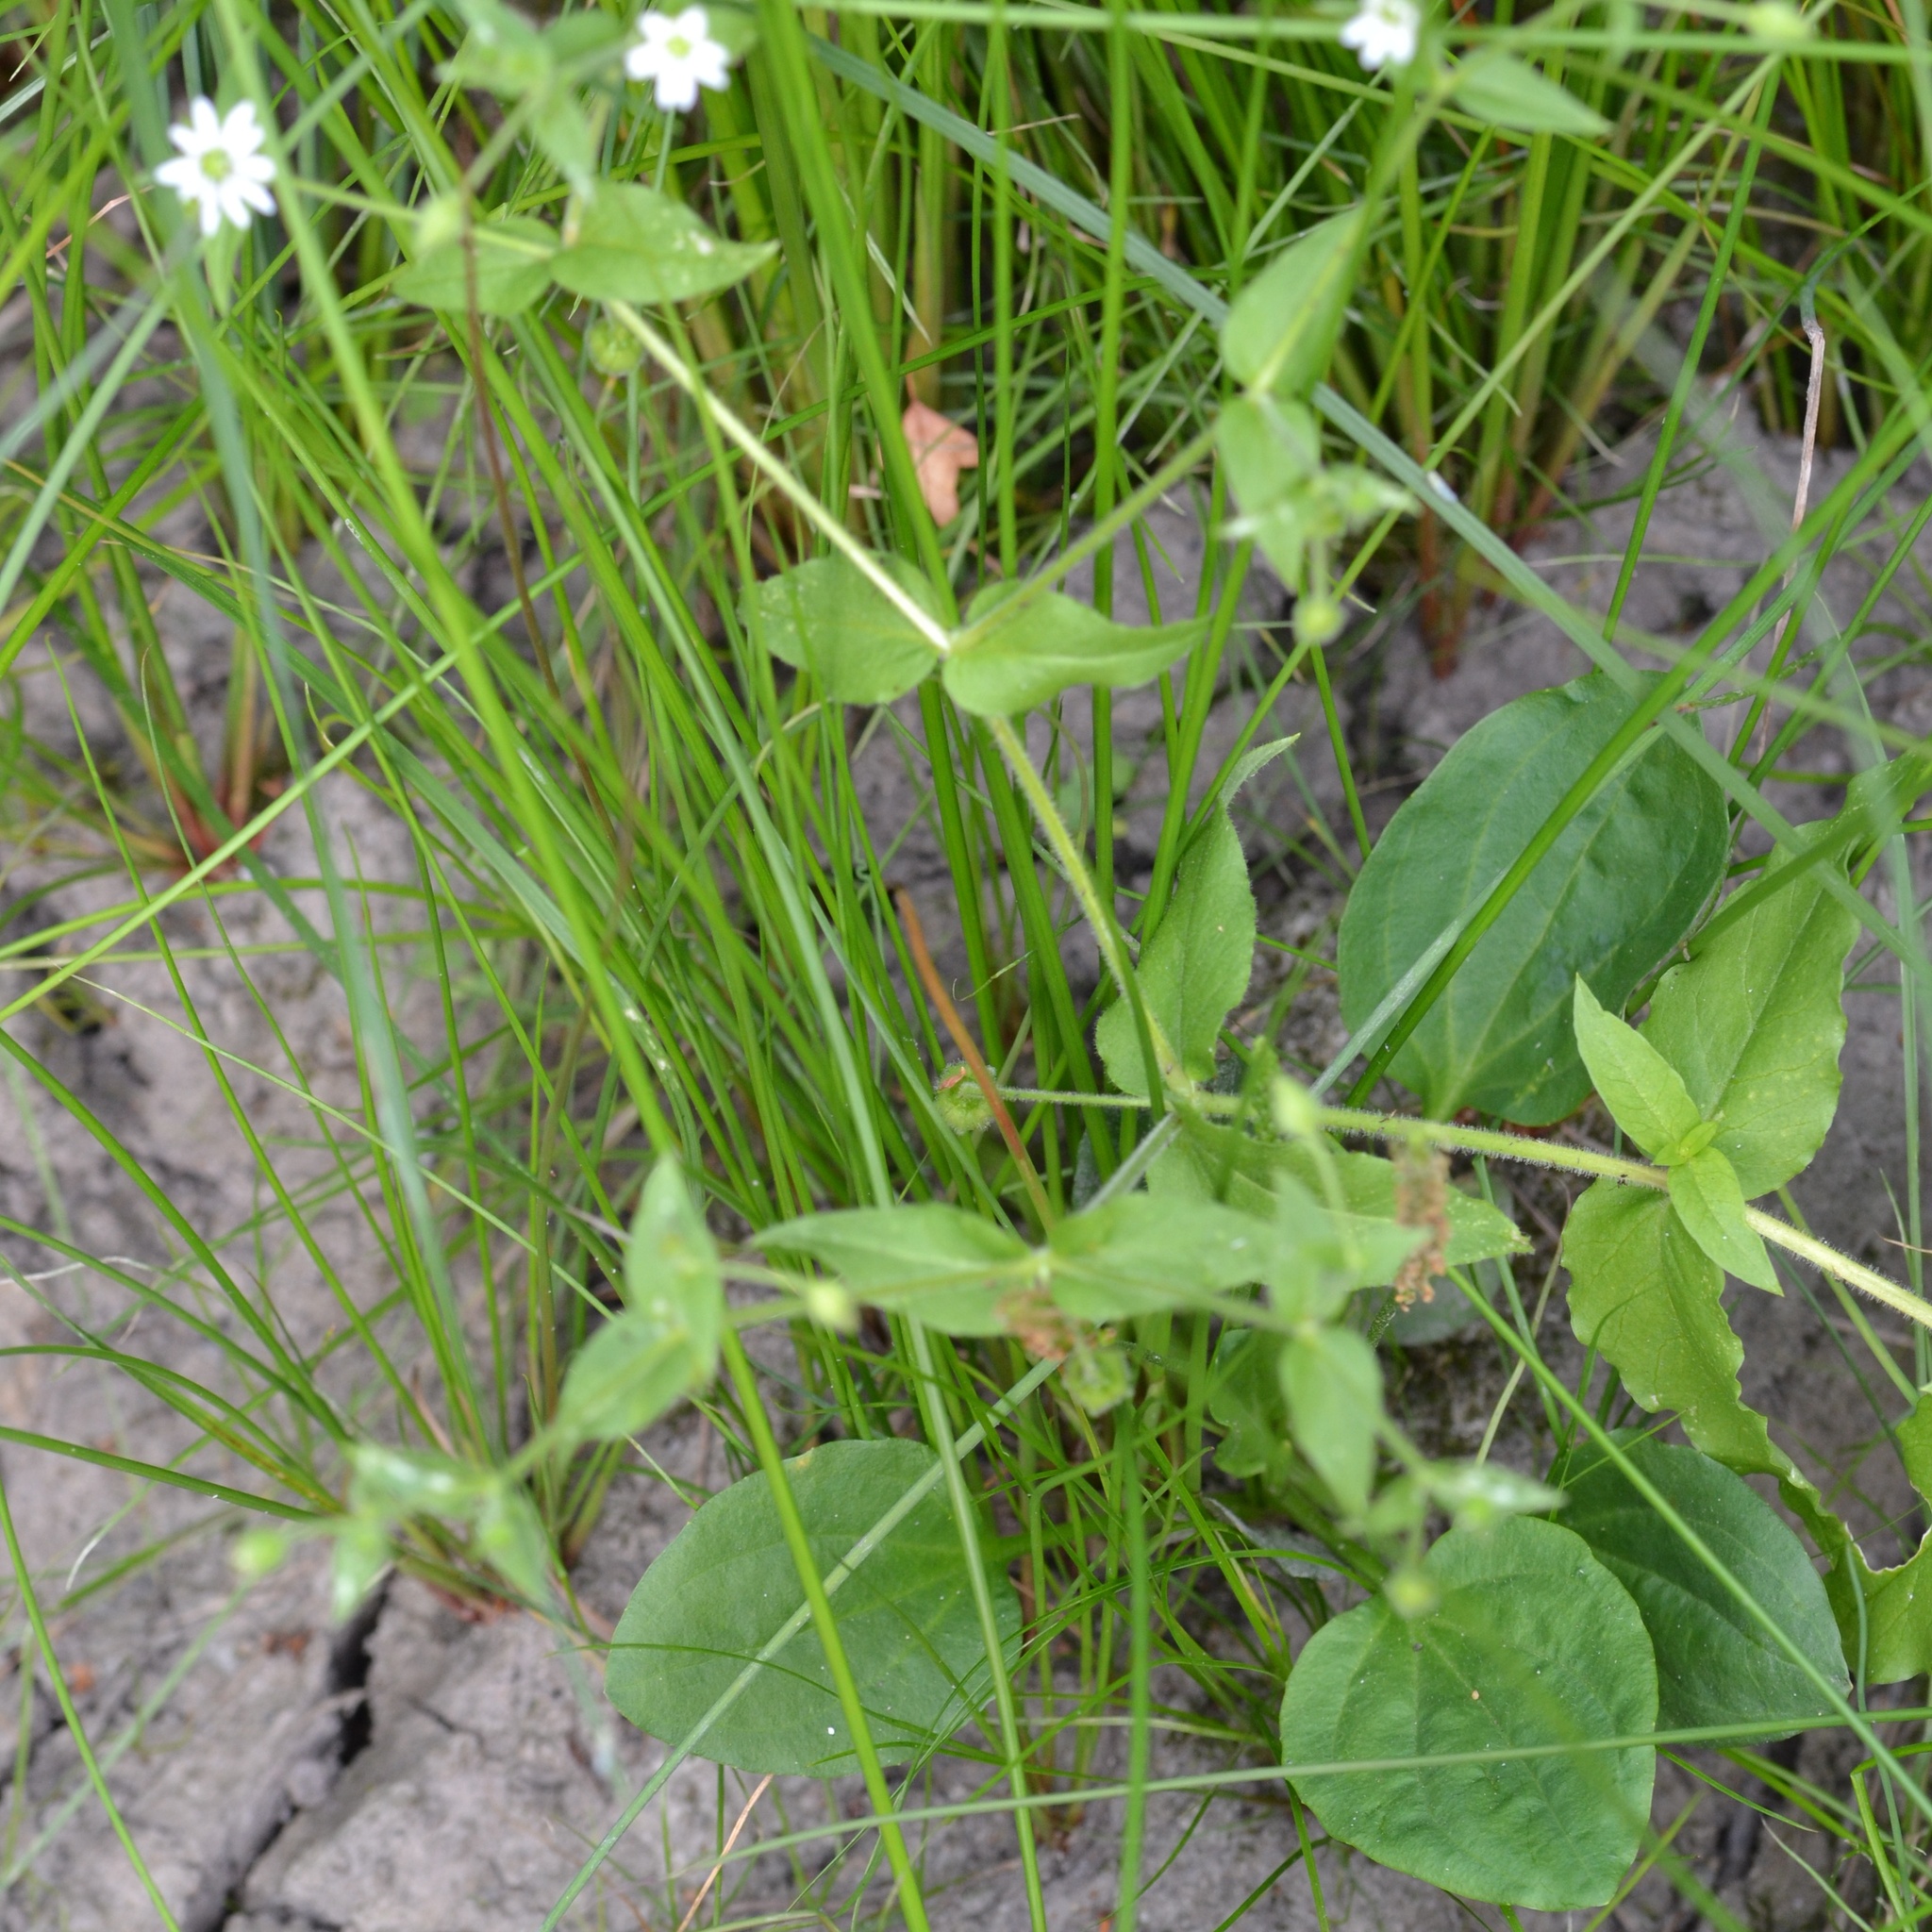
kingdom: Plantae
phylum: Tracheophyta
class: Magnoliopsida
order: Caryophyllales
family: Caryophyllaceae
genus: Stellaria
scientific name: Stellaria aquatica
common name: Water chickweed
